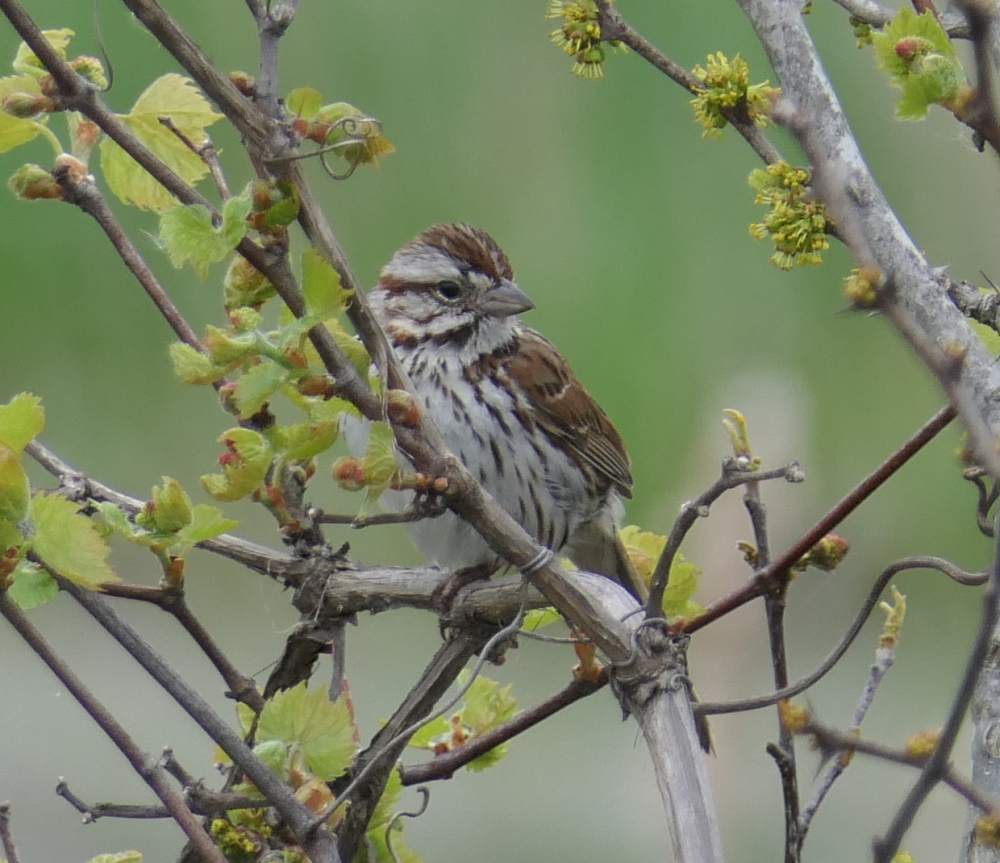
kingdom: Animalia
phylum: Chordata
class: Aves
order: Passeriformes
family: Passerellidae
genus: Melospiza
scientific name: Melospiza melodia
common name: Song sparrow
